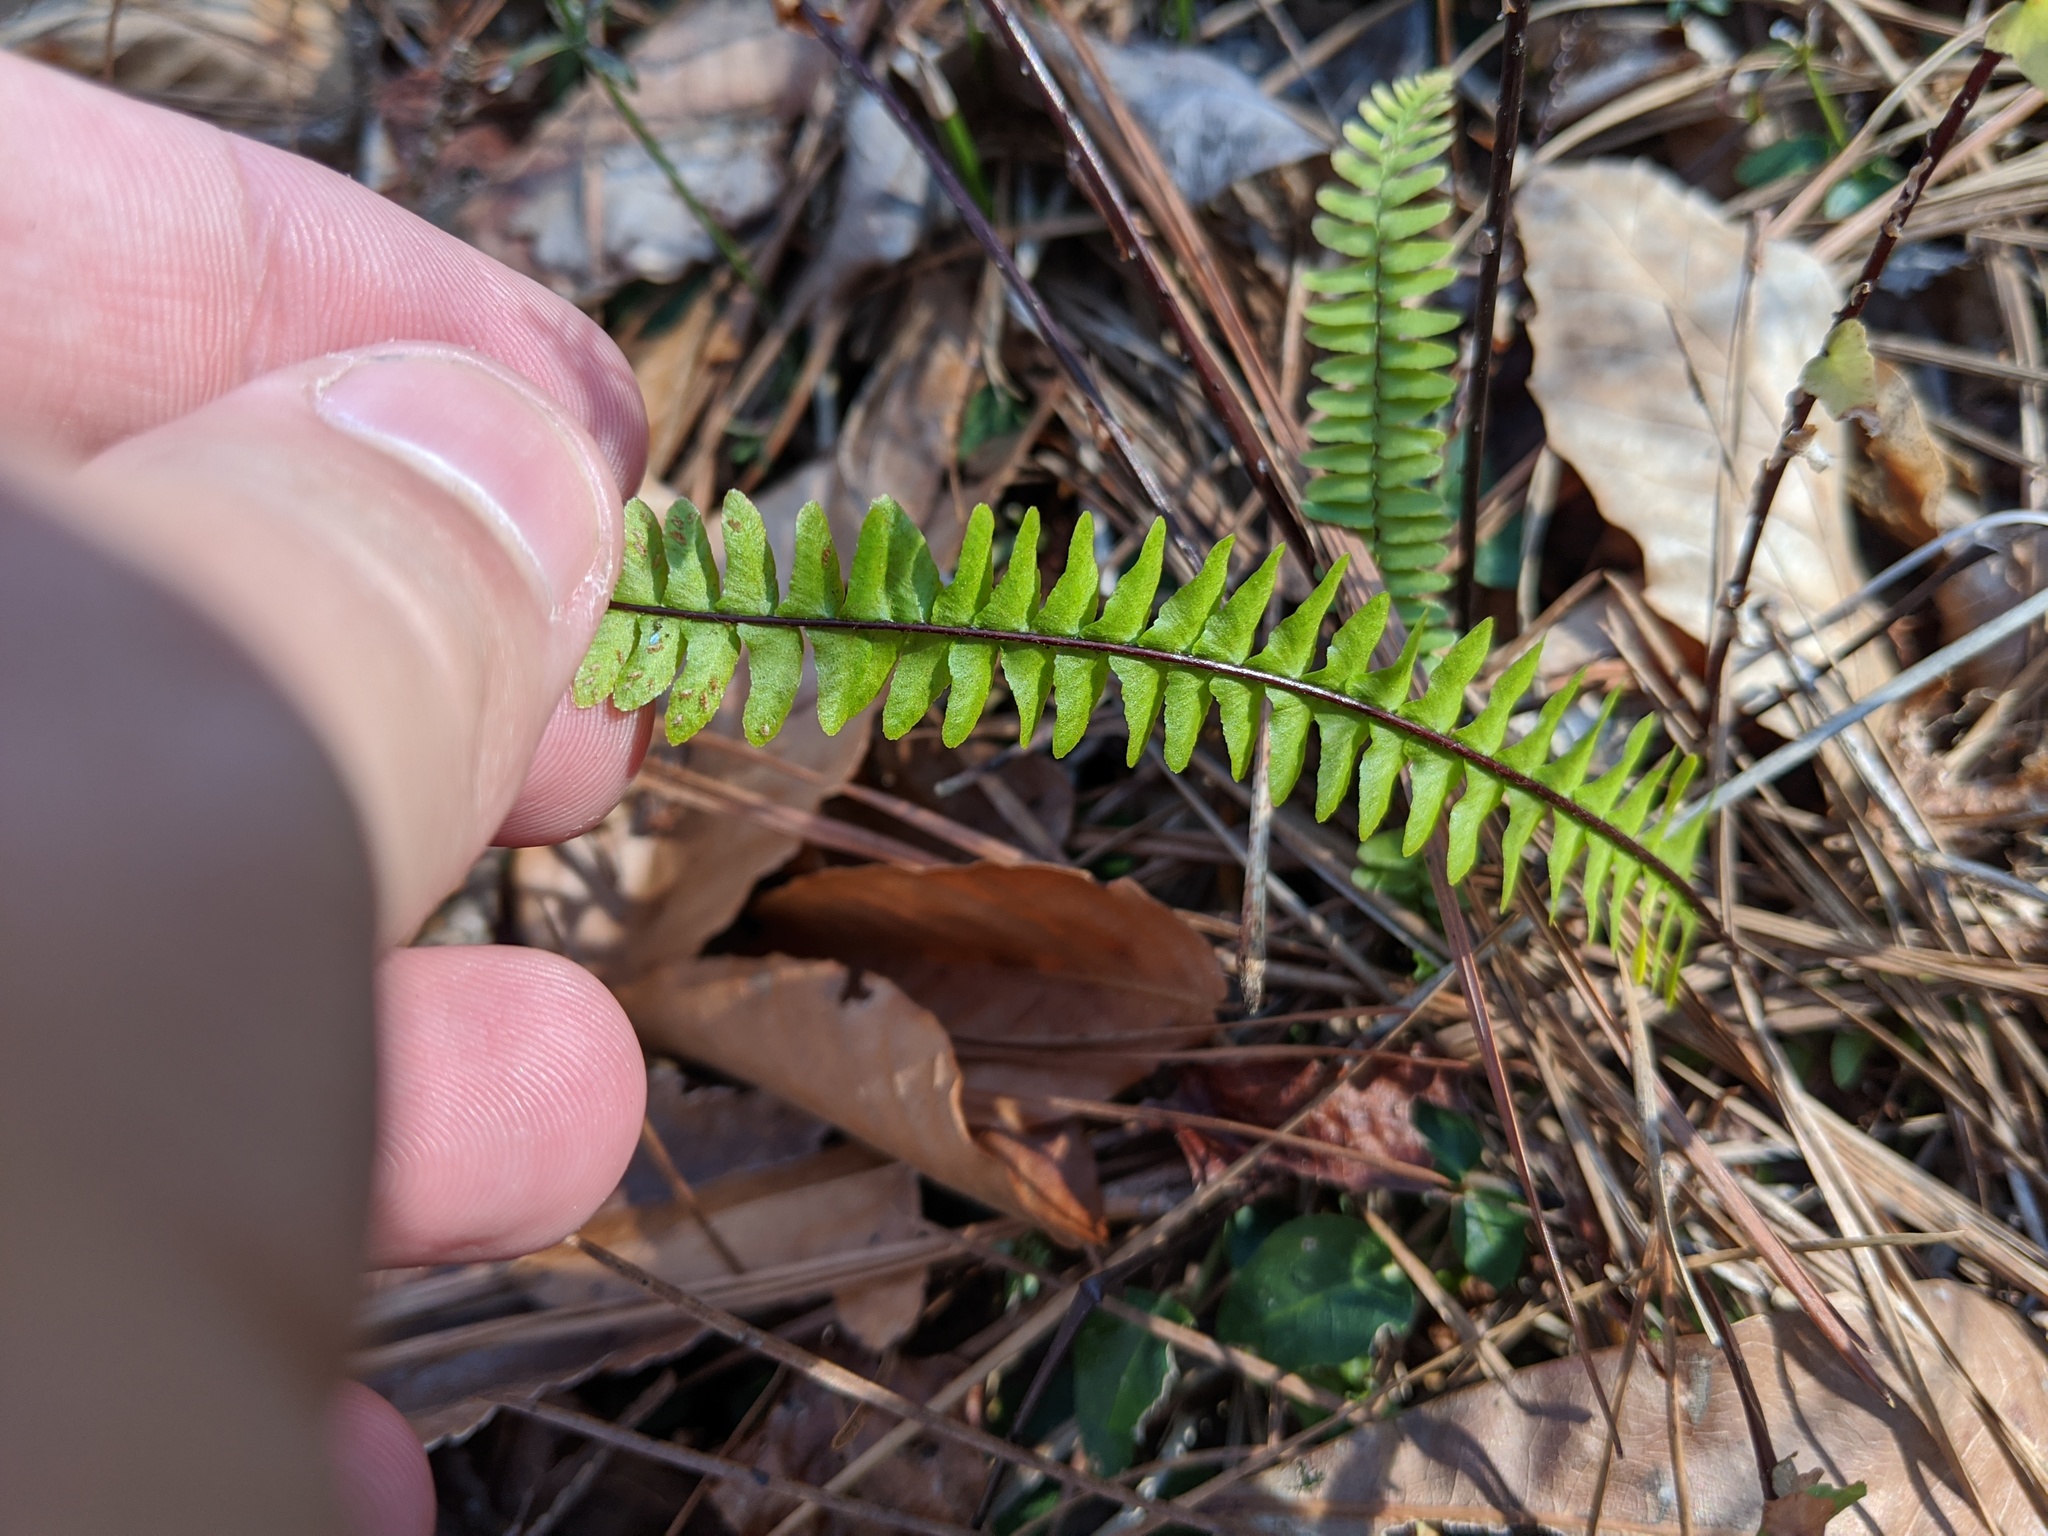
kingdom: Plantae
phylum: Tracheophyta
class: Polypodiopsida
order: Polypodiales
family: Aspleniaceae
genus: Asplenium
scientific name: Asplenium platyneuron
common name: Ebony spleenwort
